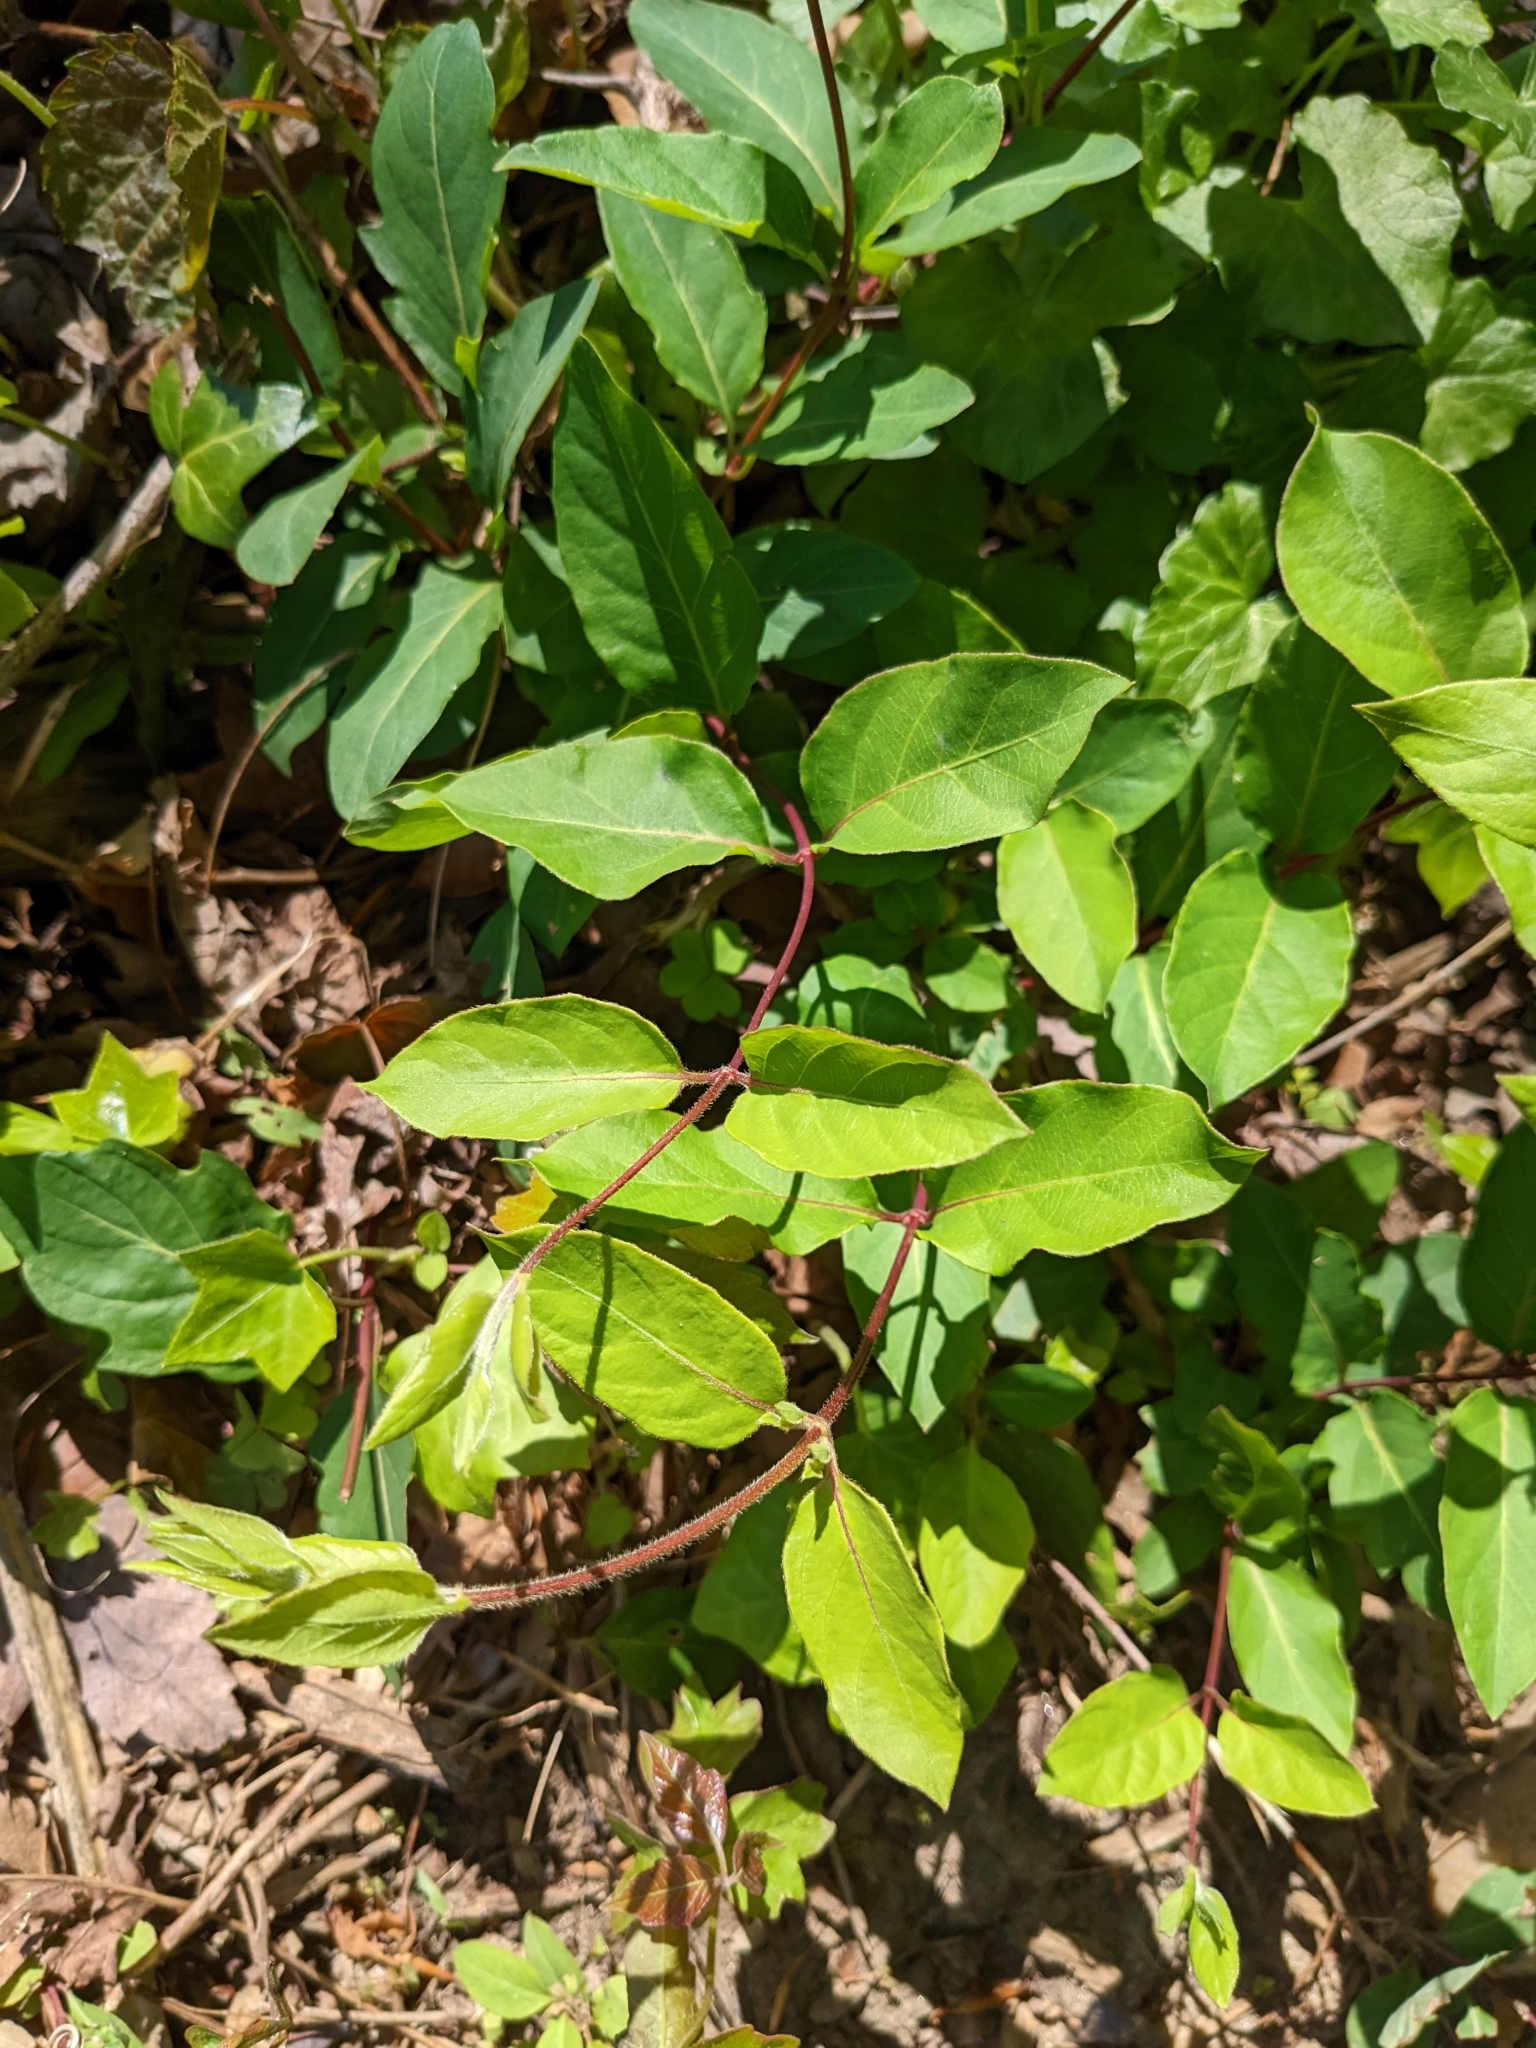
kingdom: Plantae
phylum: Tracheophyta
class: Magnoliopsida
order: Dipsacales
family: Caprifoliaceae
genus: Lonicera
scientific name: Lonicera japonica
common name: Japanese honeysuckle
